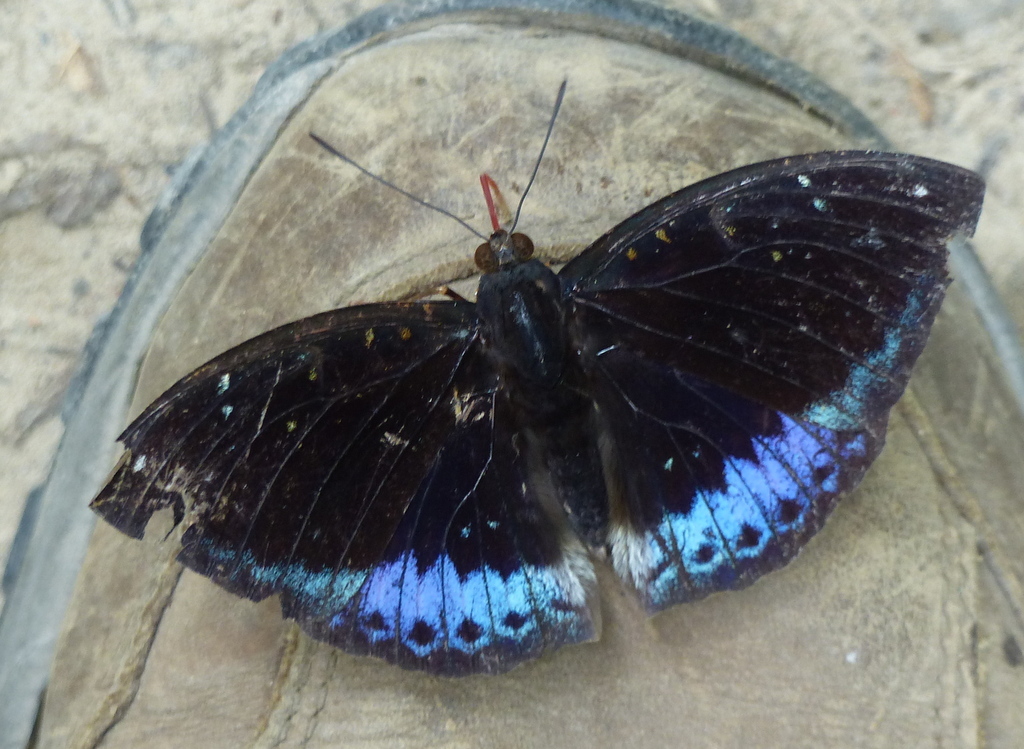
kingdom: Animalia
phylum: Arthropoda
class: Insecta
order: Lepidoptera
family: Nymphalidae
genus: Lexias
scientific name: Lexias dirtea
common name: Black-tipped archduke
